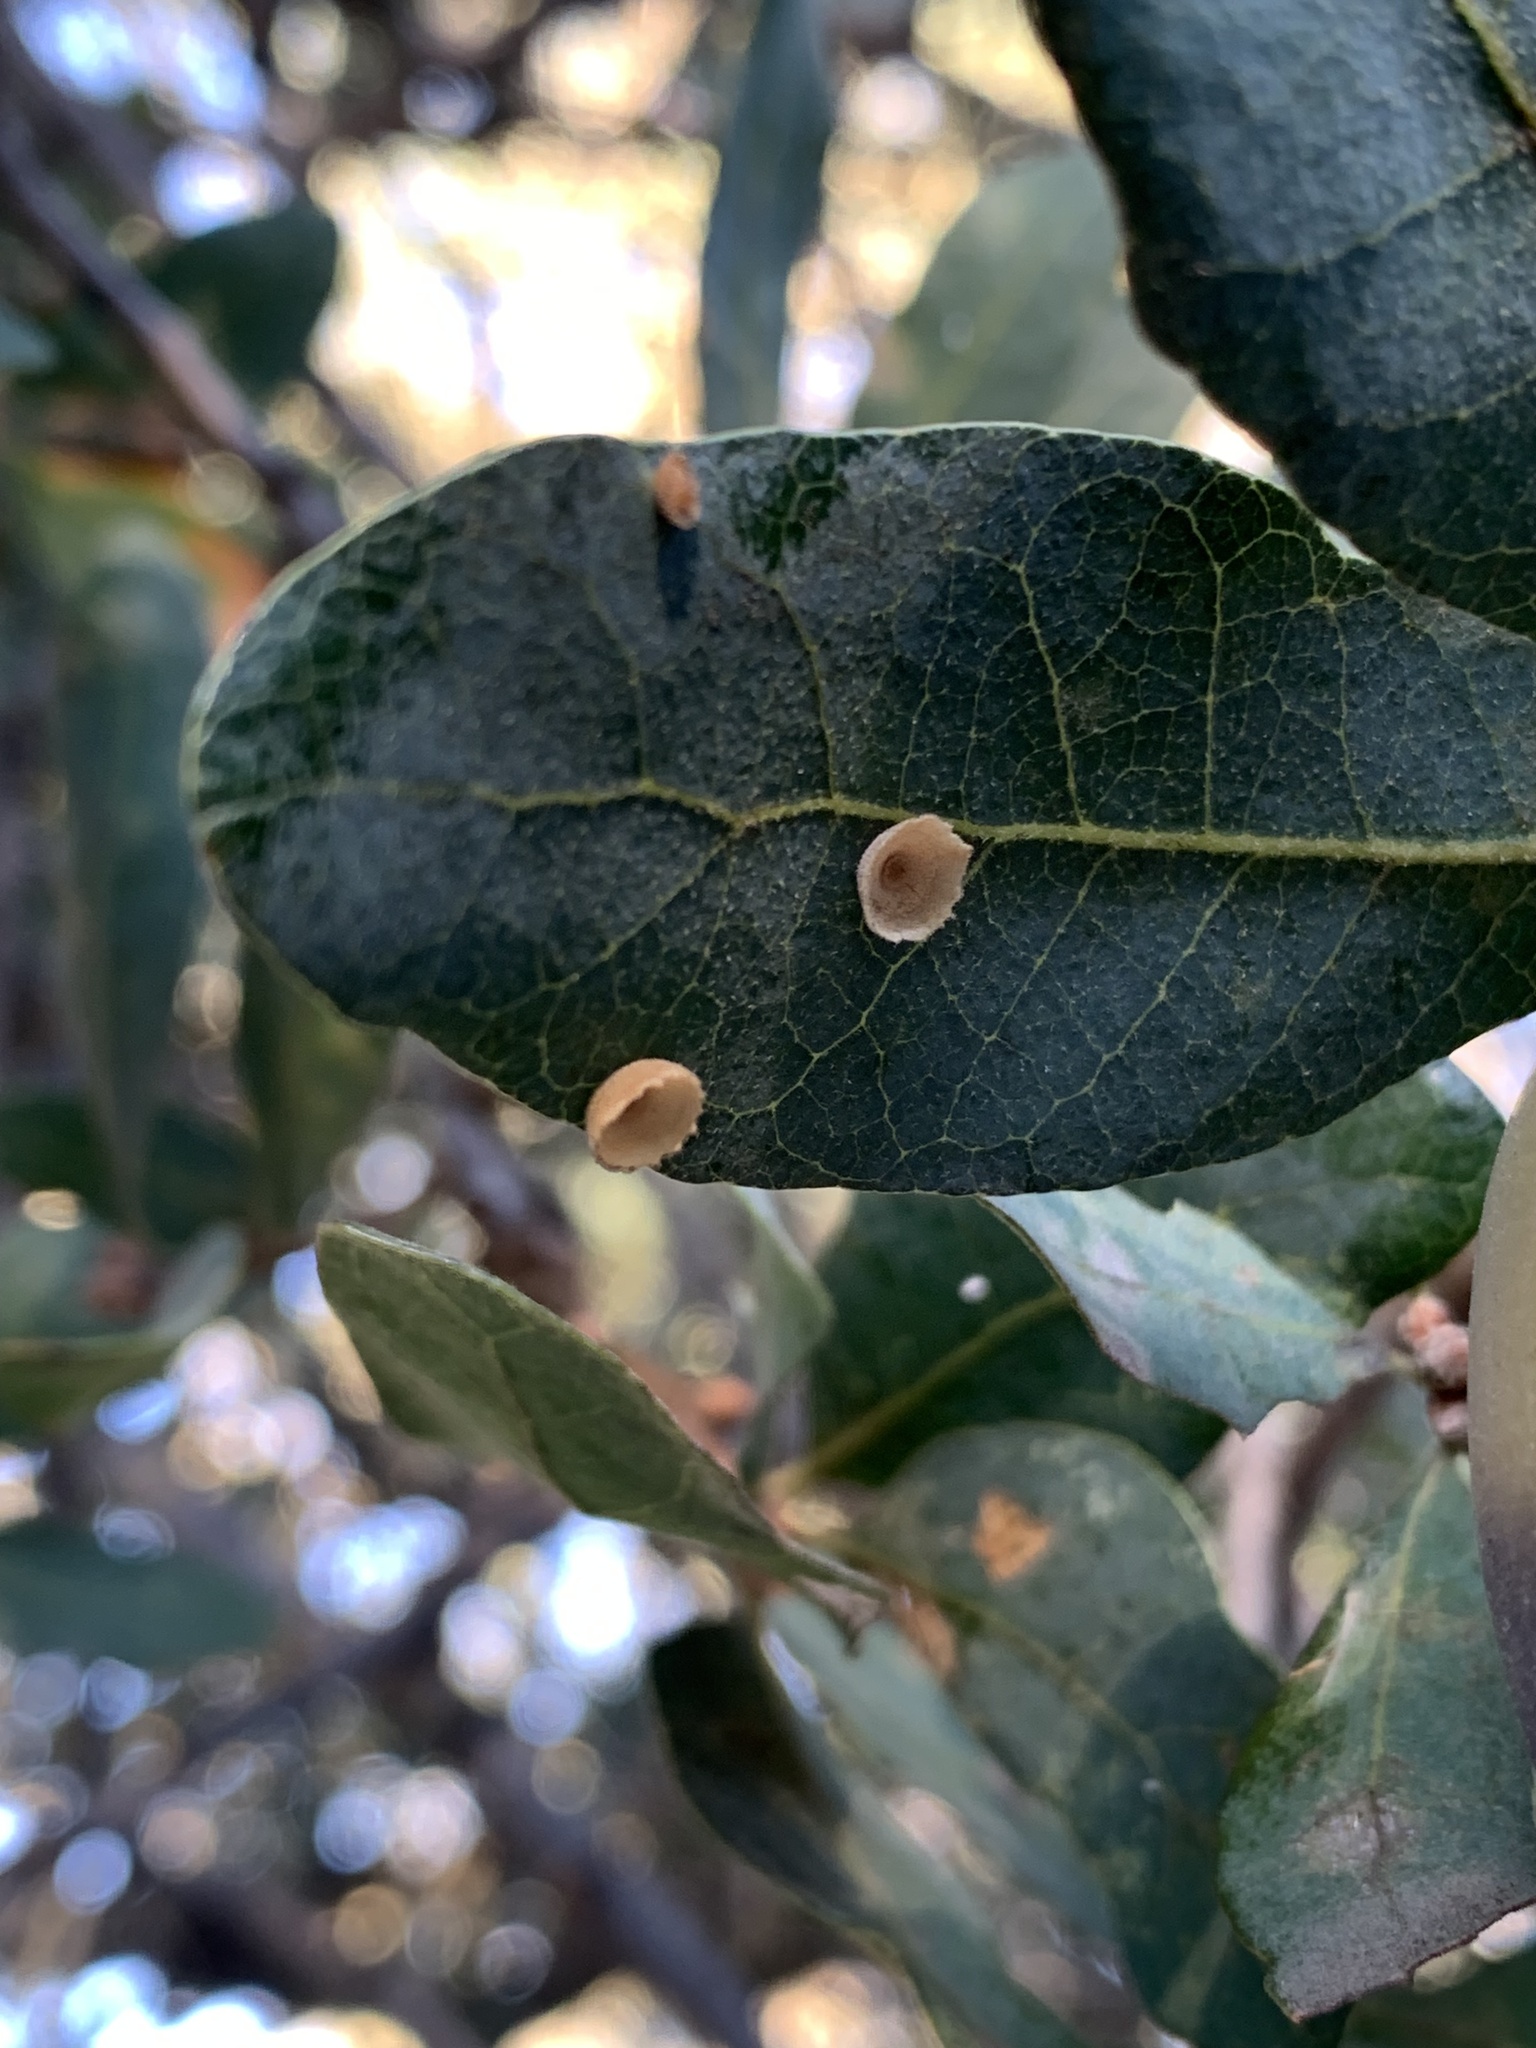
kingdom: Animalia
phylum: Arthropoda
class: Insecta
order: Hymenoptera
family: Cynipidae
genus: Andricus
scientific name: Andricus
